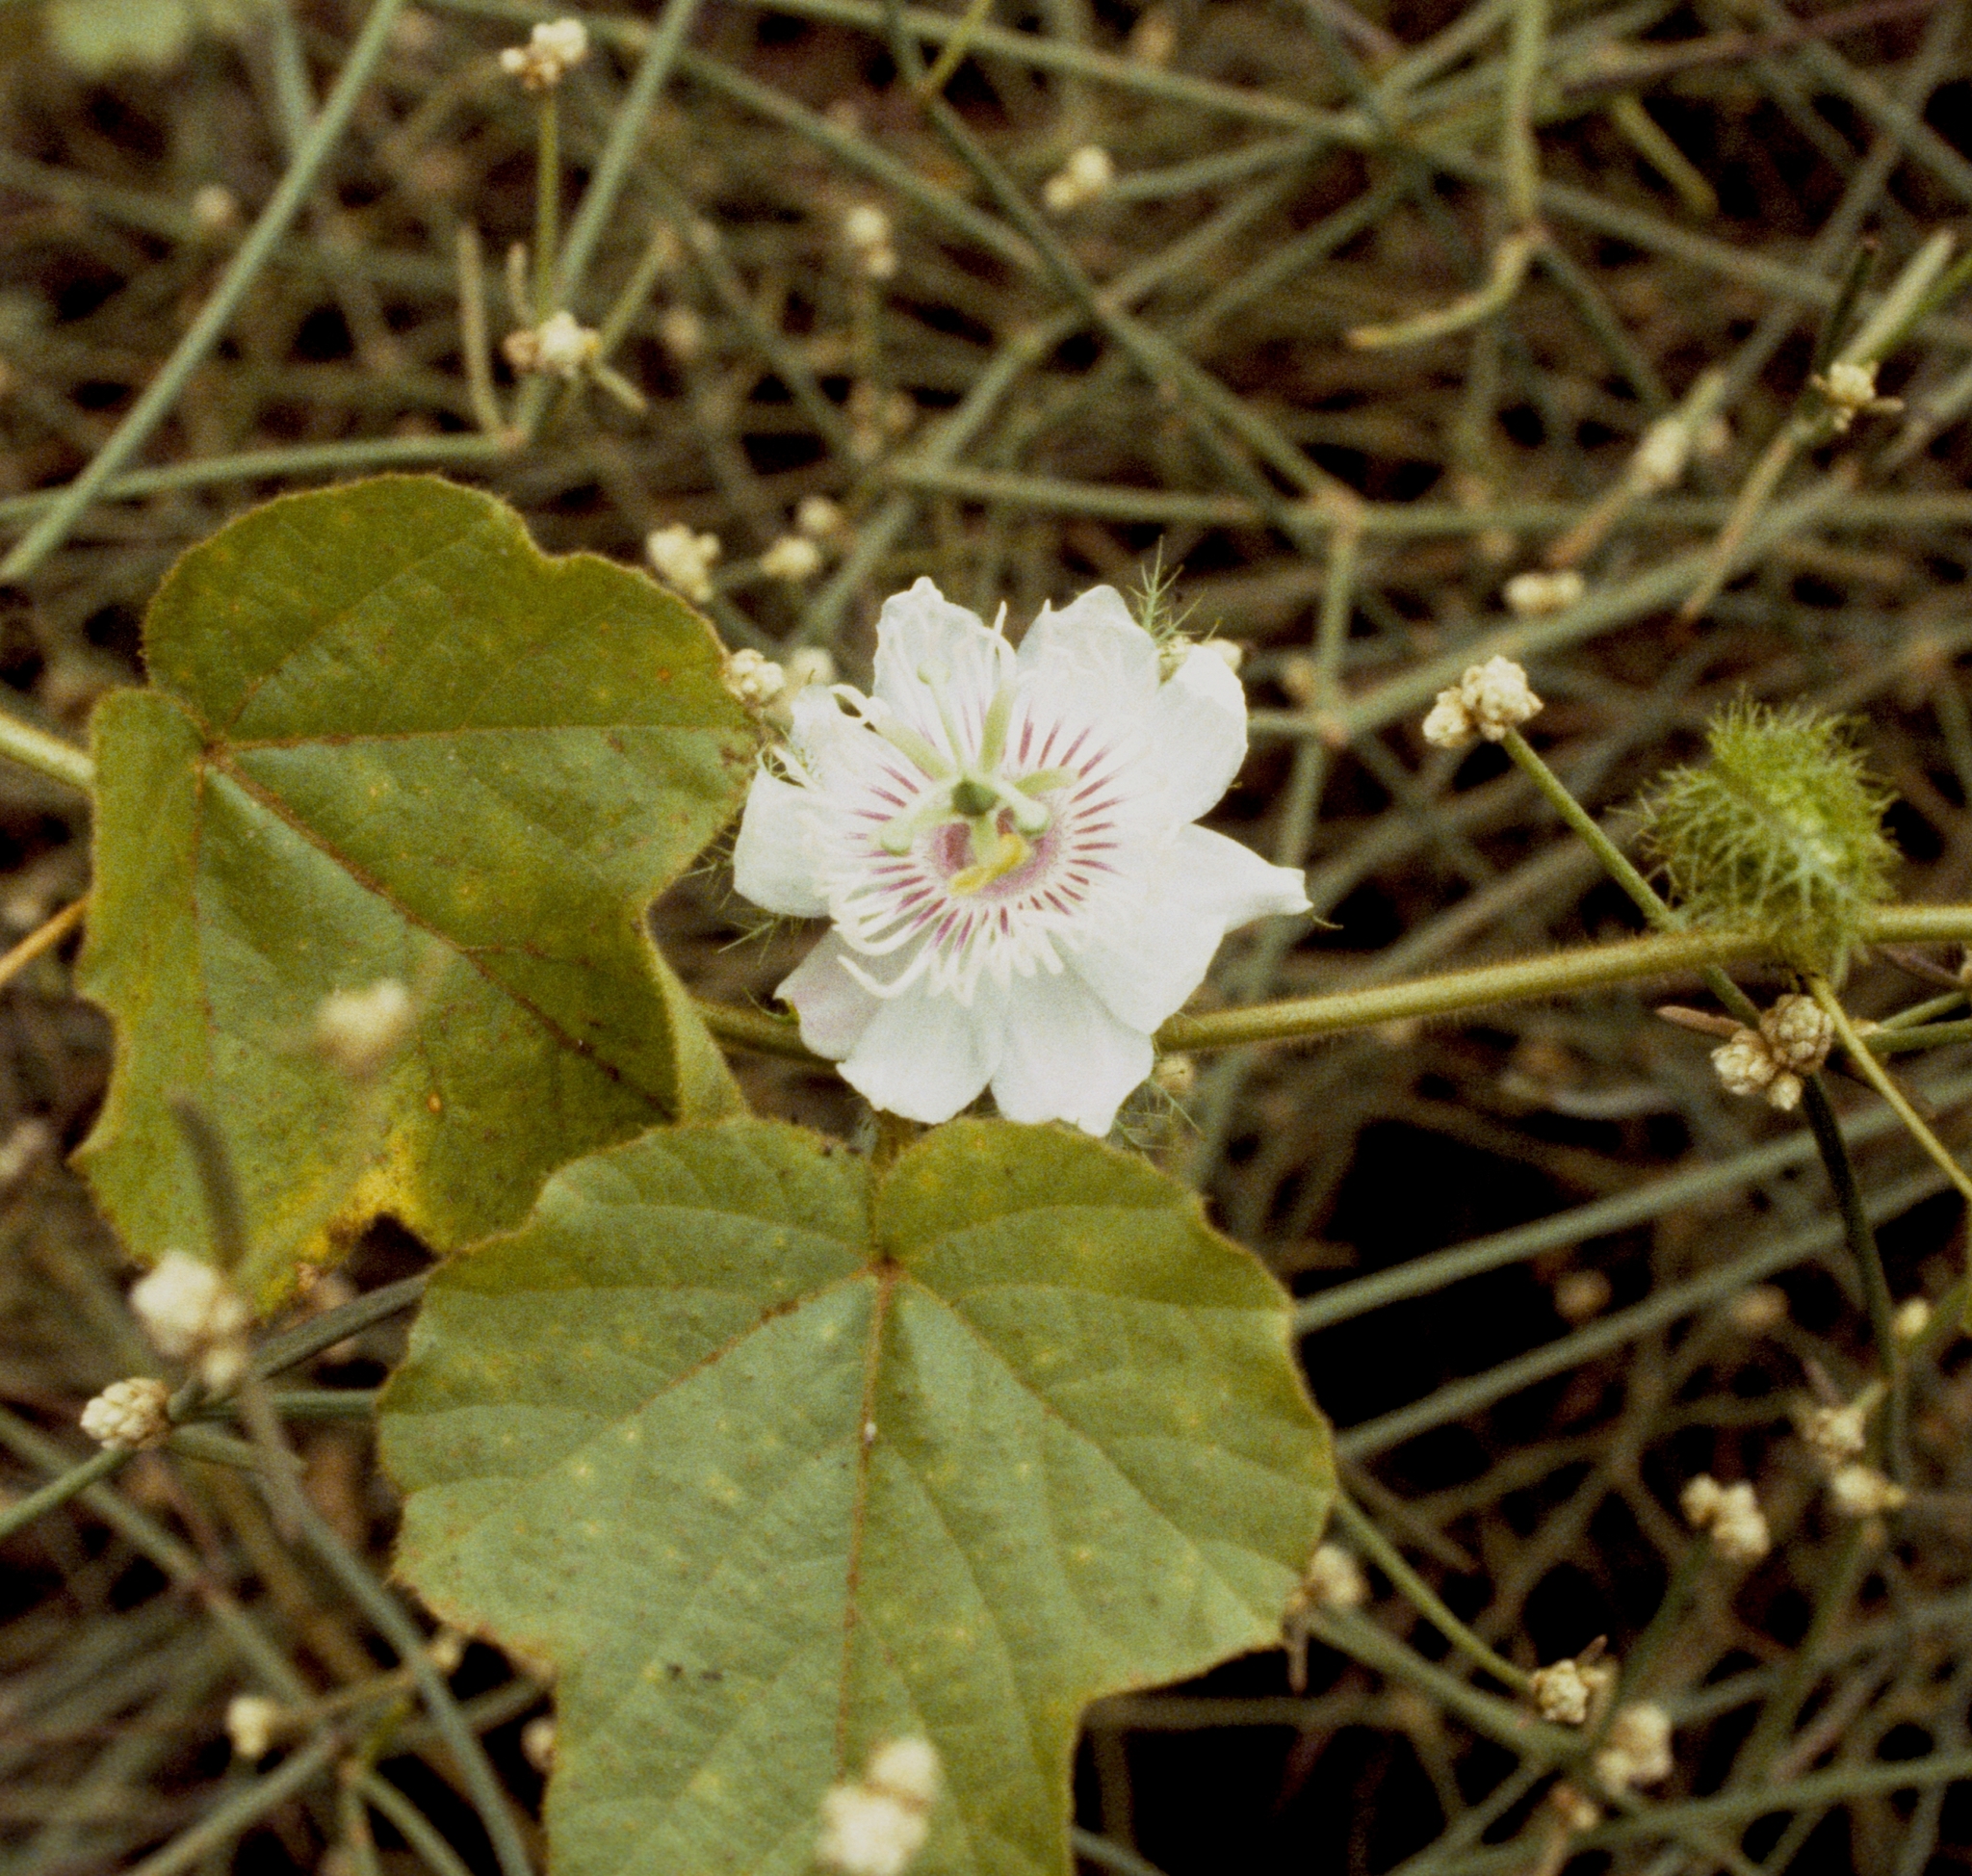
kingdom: Plantae
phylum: Tracheophyta
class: Magnoliopsida
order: Malpighiales
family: Passifloraceae
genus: Passiflora
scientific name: Passiflora vesicaria
